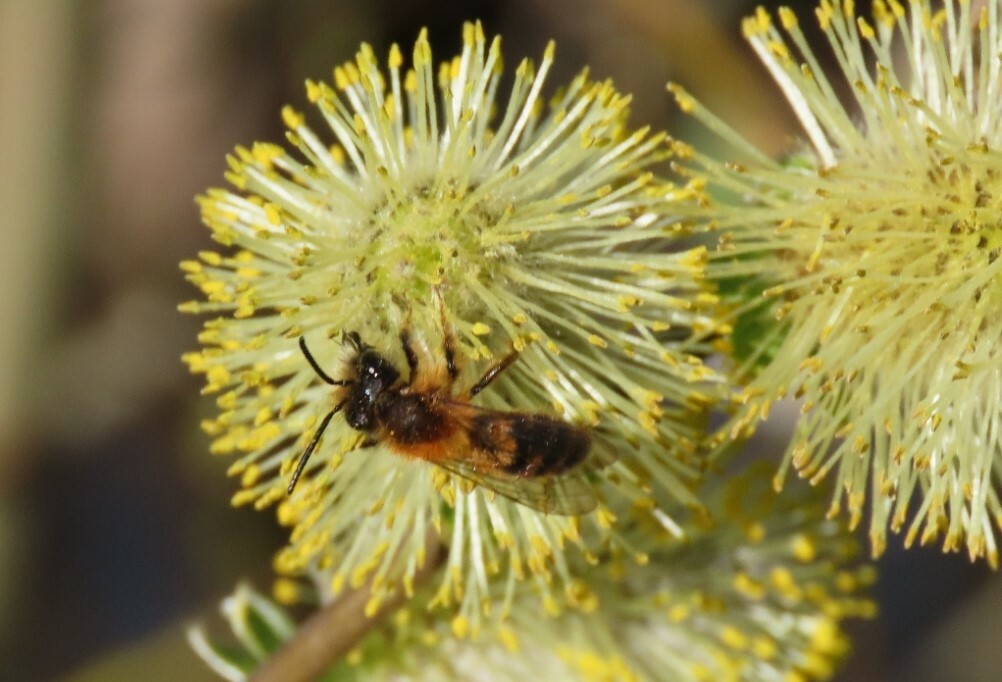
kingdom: Animalia
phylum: Arthropoda
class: Insecta
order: Hymenoptera
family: Andrenidae
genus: Andrena
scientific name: Andrena fulva
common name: Tawny mining bee
